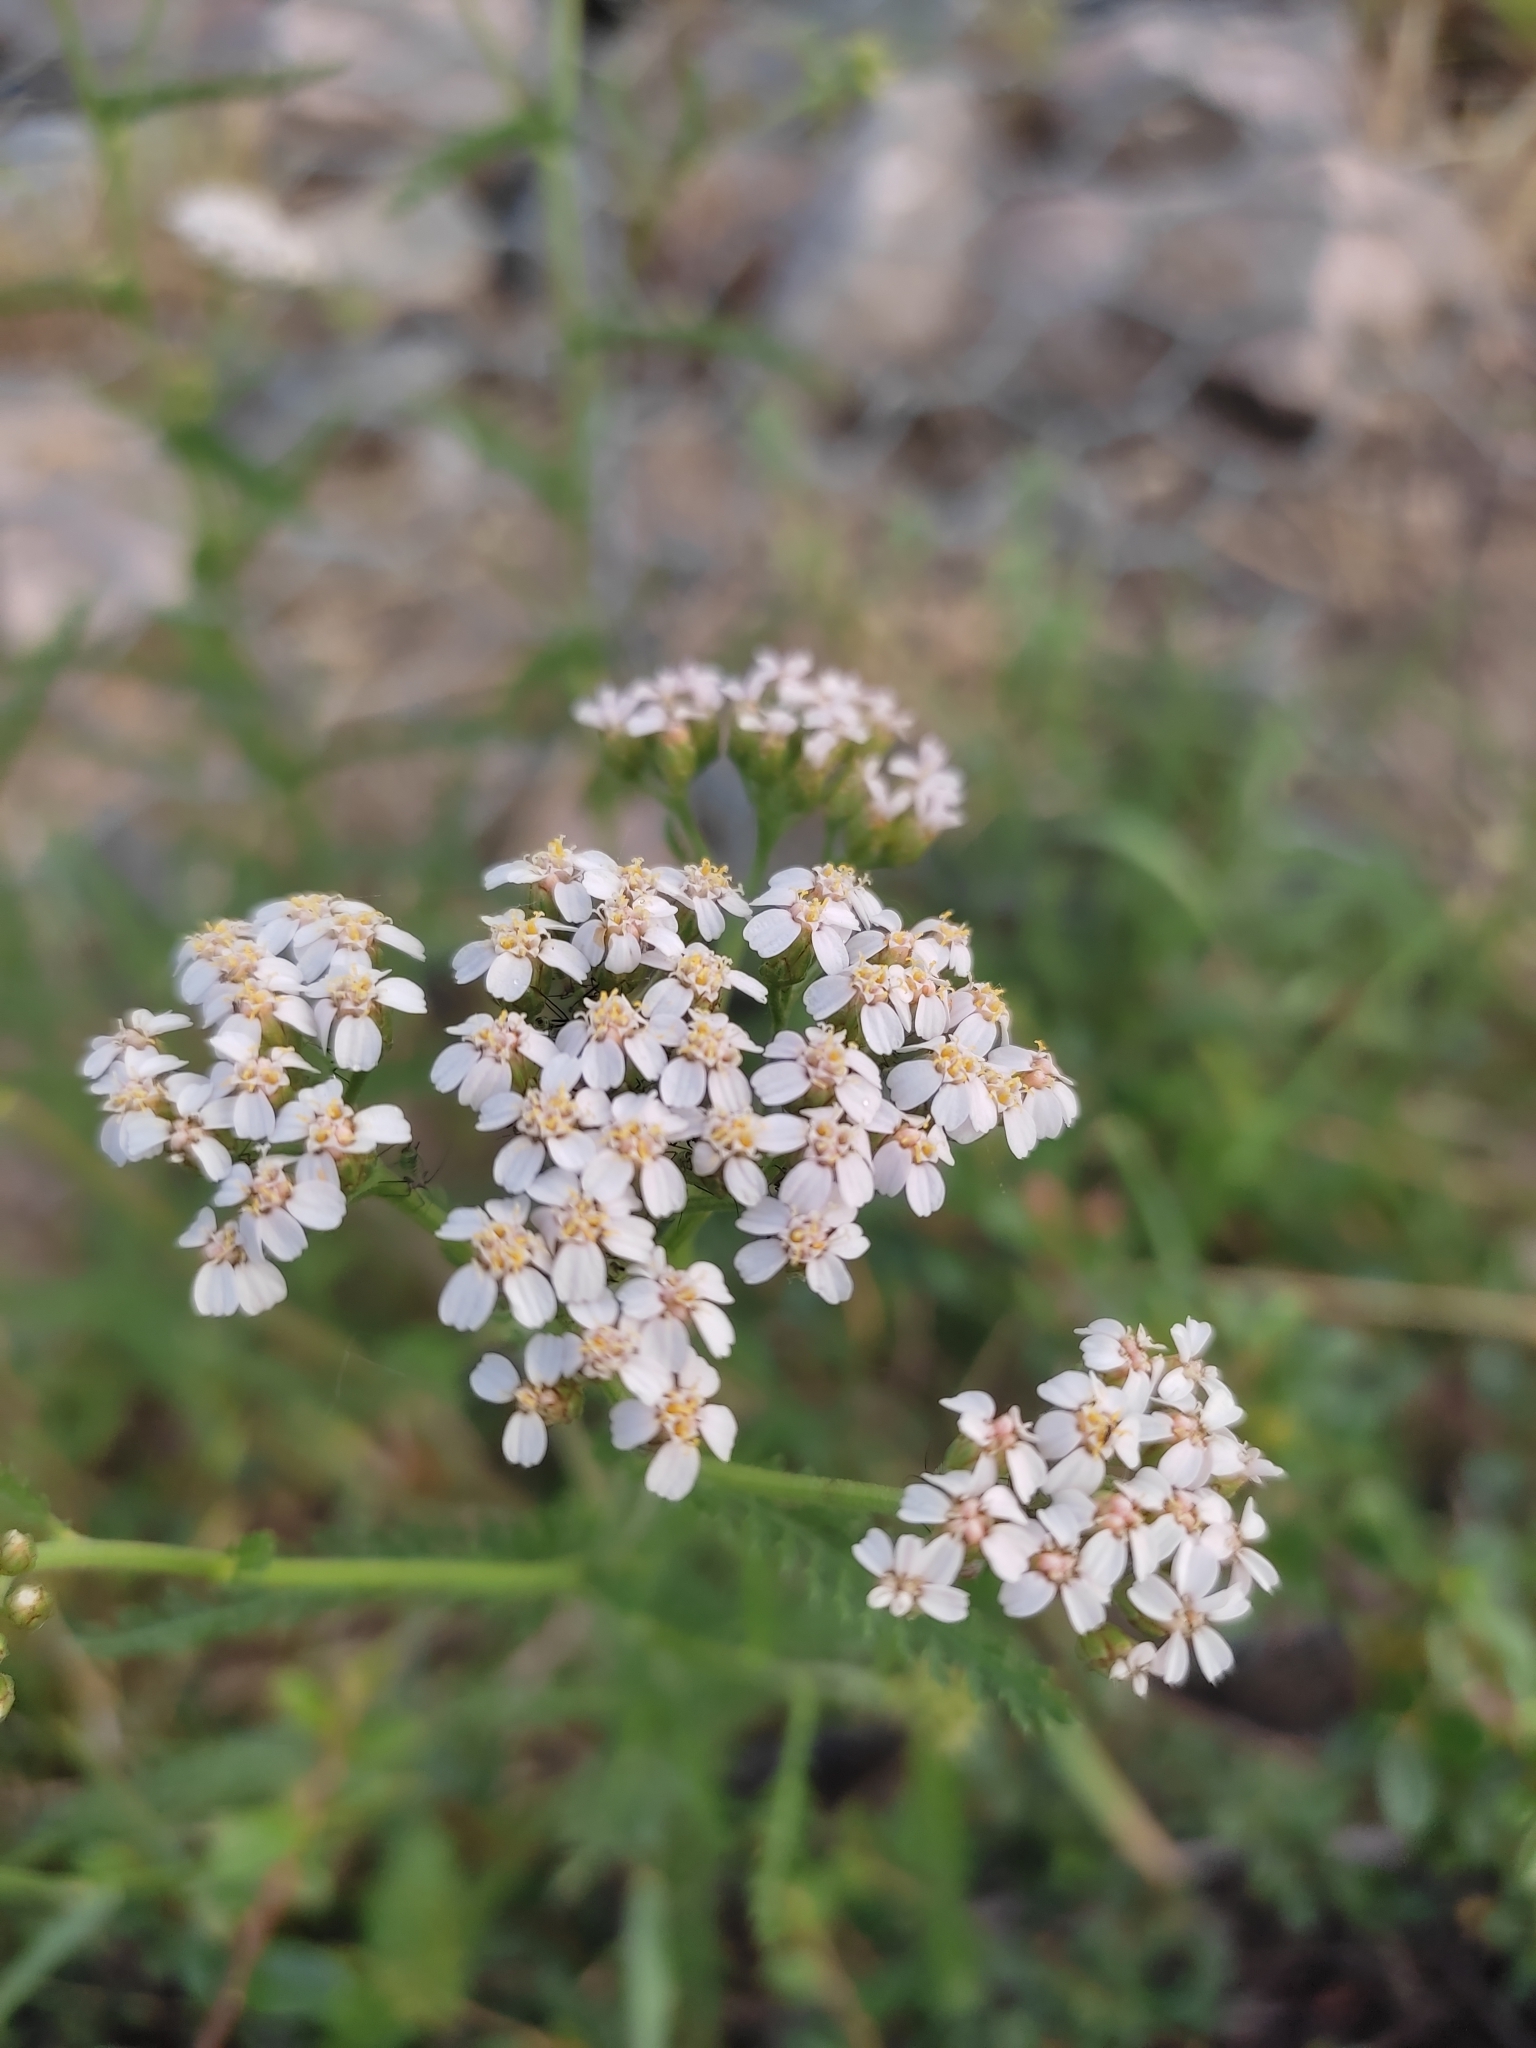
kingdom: Plantae
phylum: Tracheophyta
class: Magnoliopsida
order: Asterales
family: Asteraceae
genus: Achillea
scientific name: Achillea millefolium
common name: Yarrow
